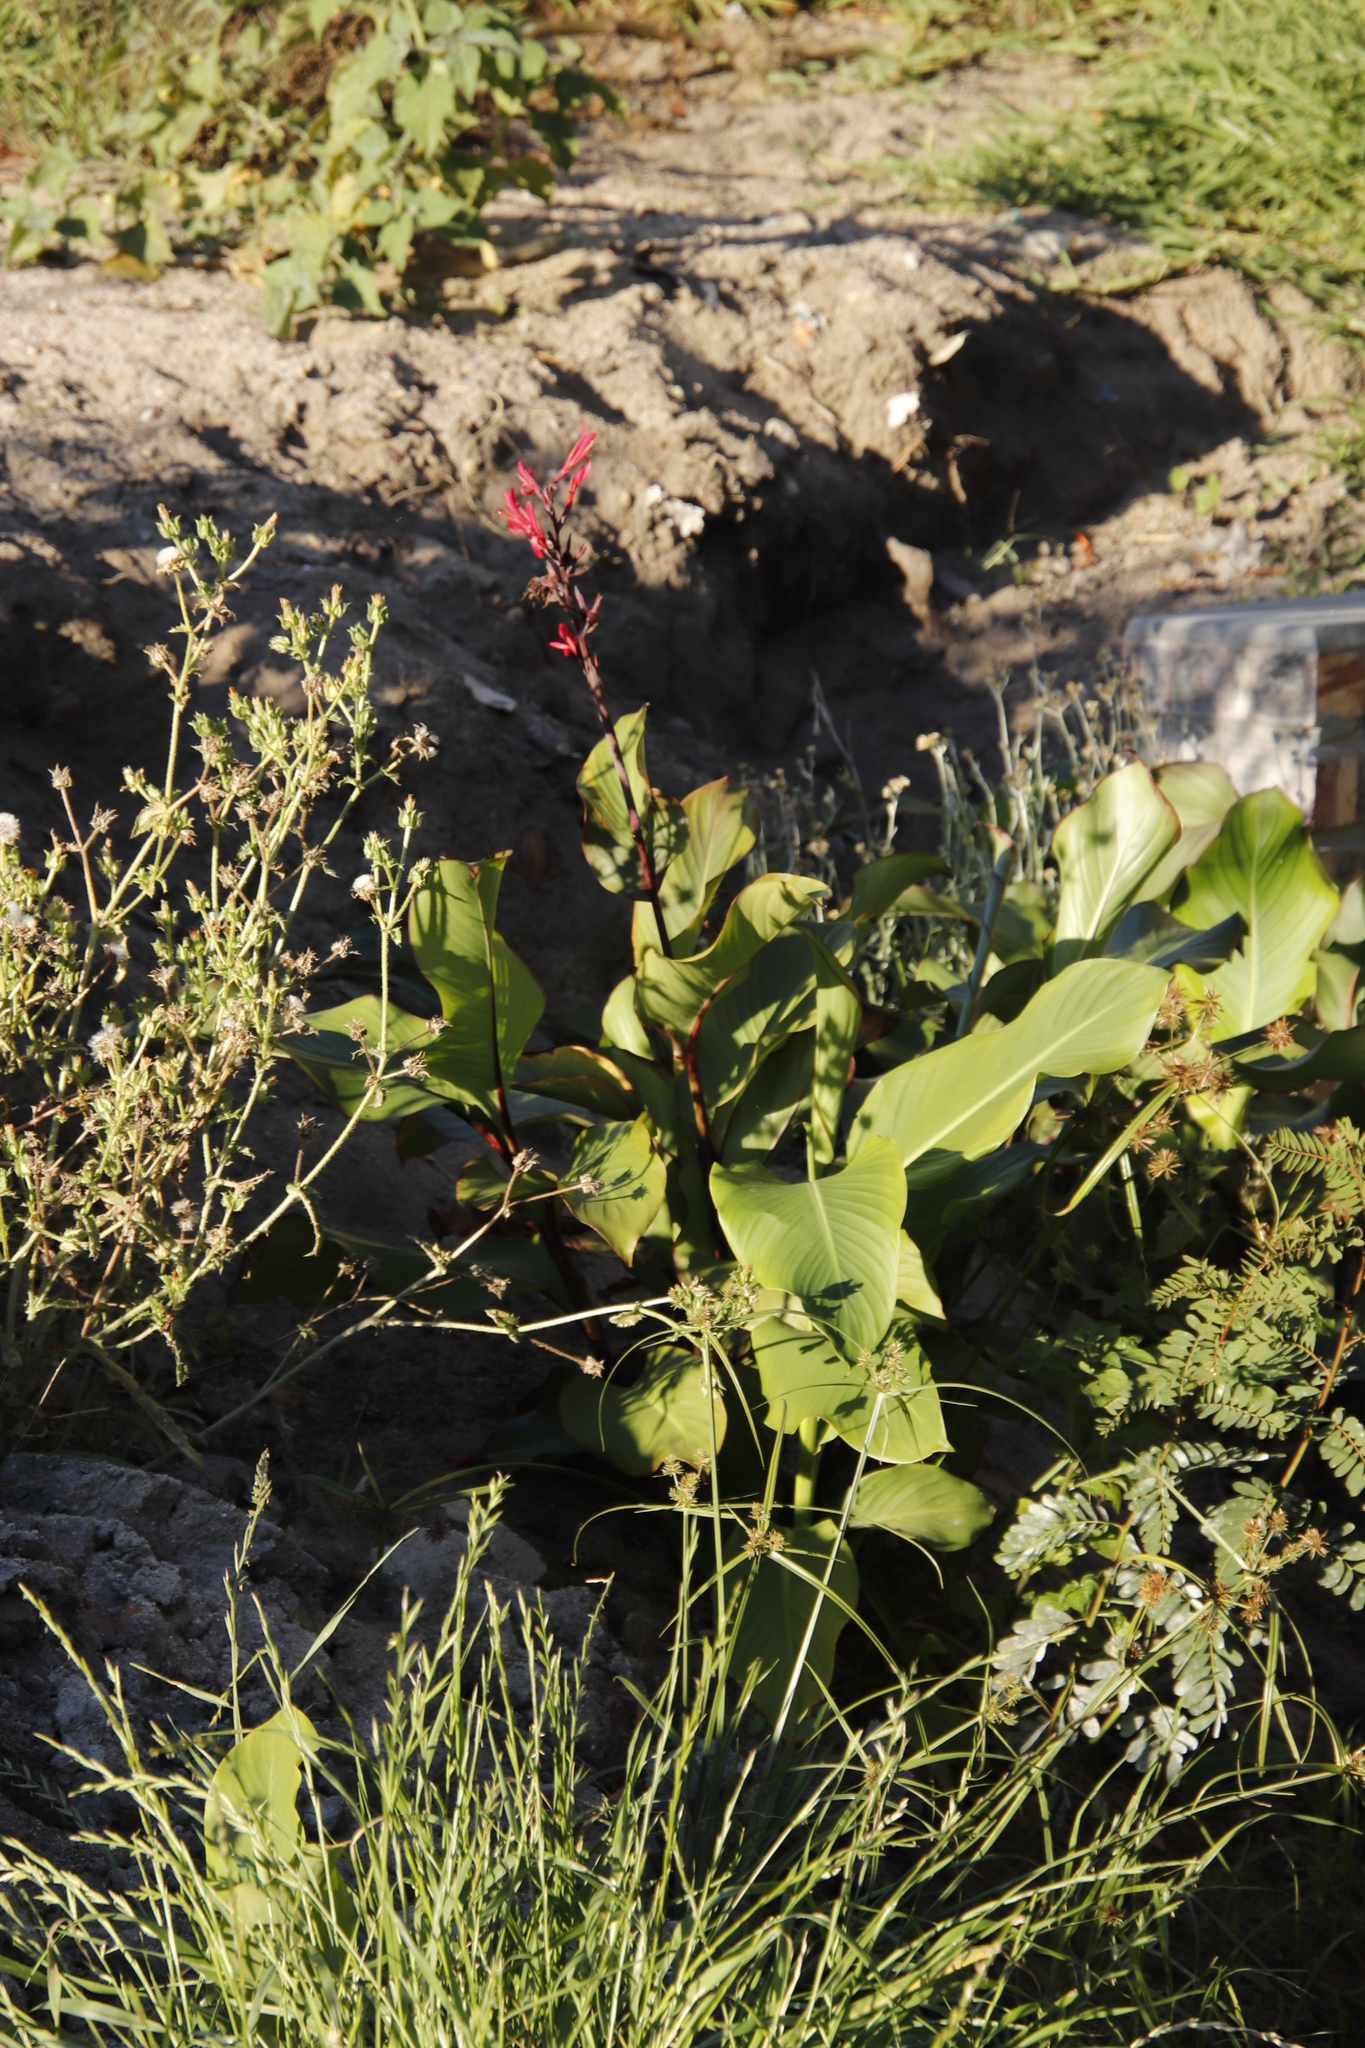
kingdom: Plantae
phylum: Tracheophyta
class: Liliopsida
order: Zingiberales
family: Cannaceae
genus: Canna
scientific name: Canna indica
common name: Indian shot
